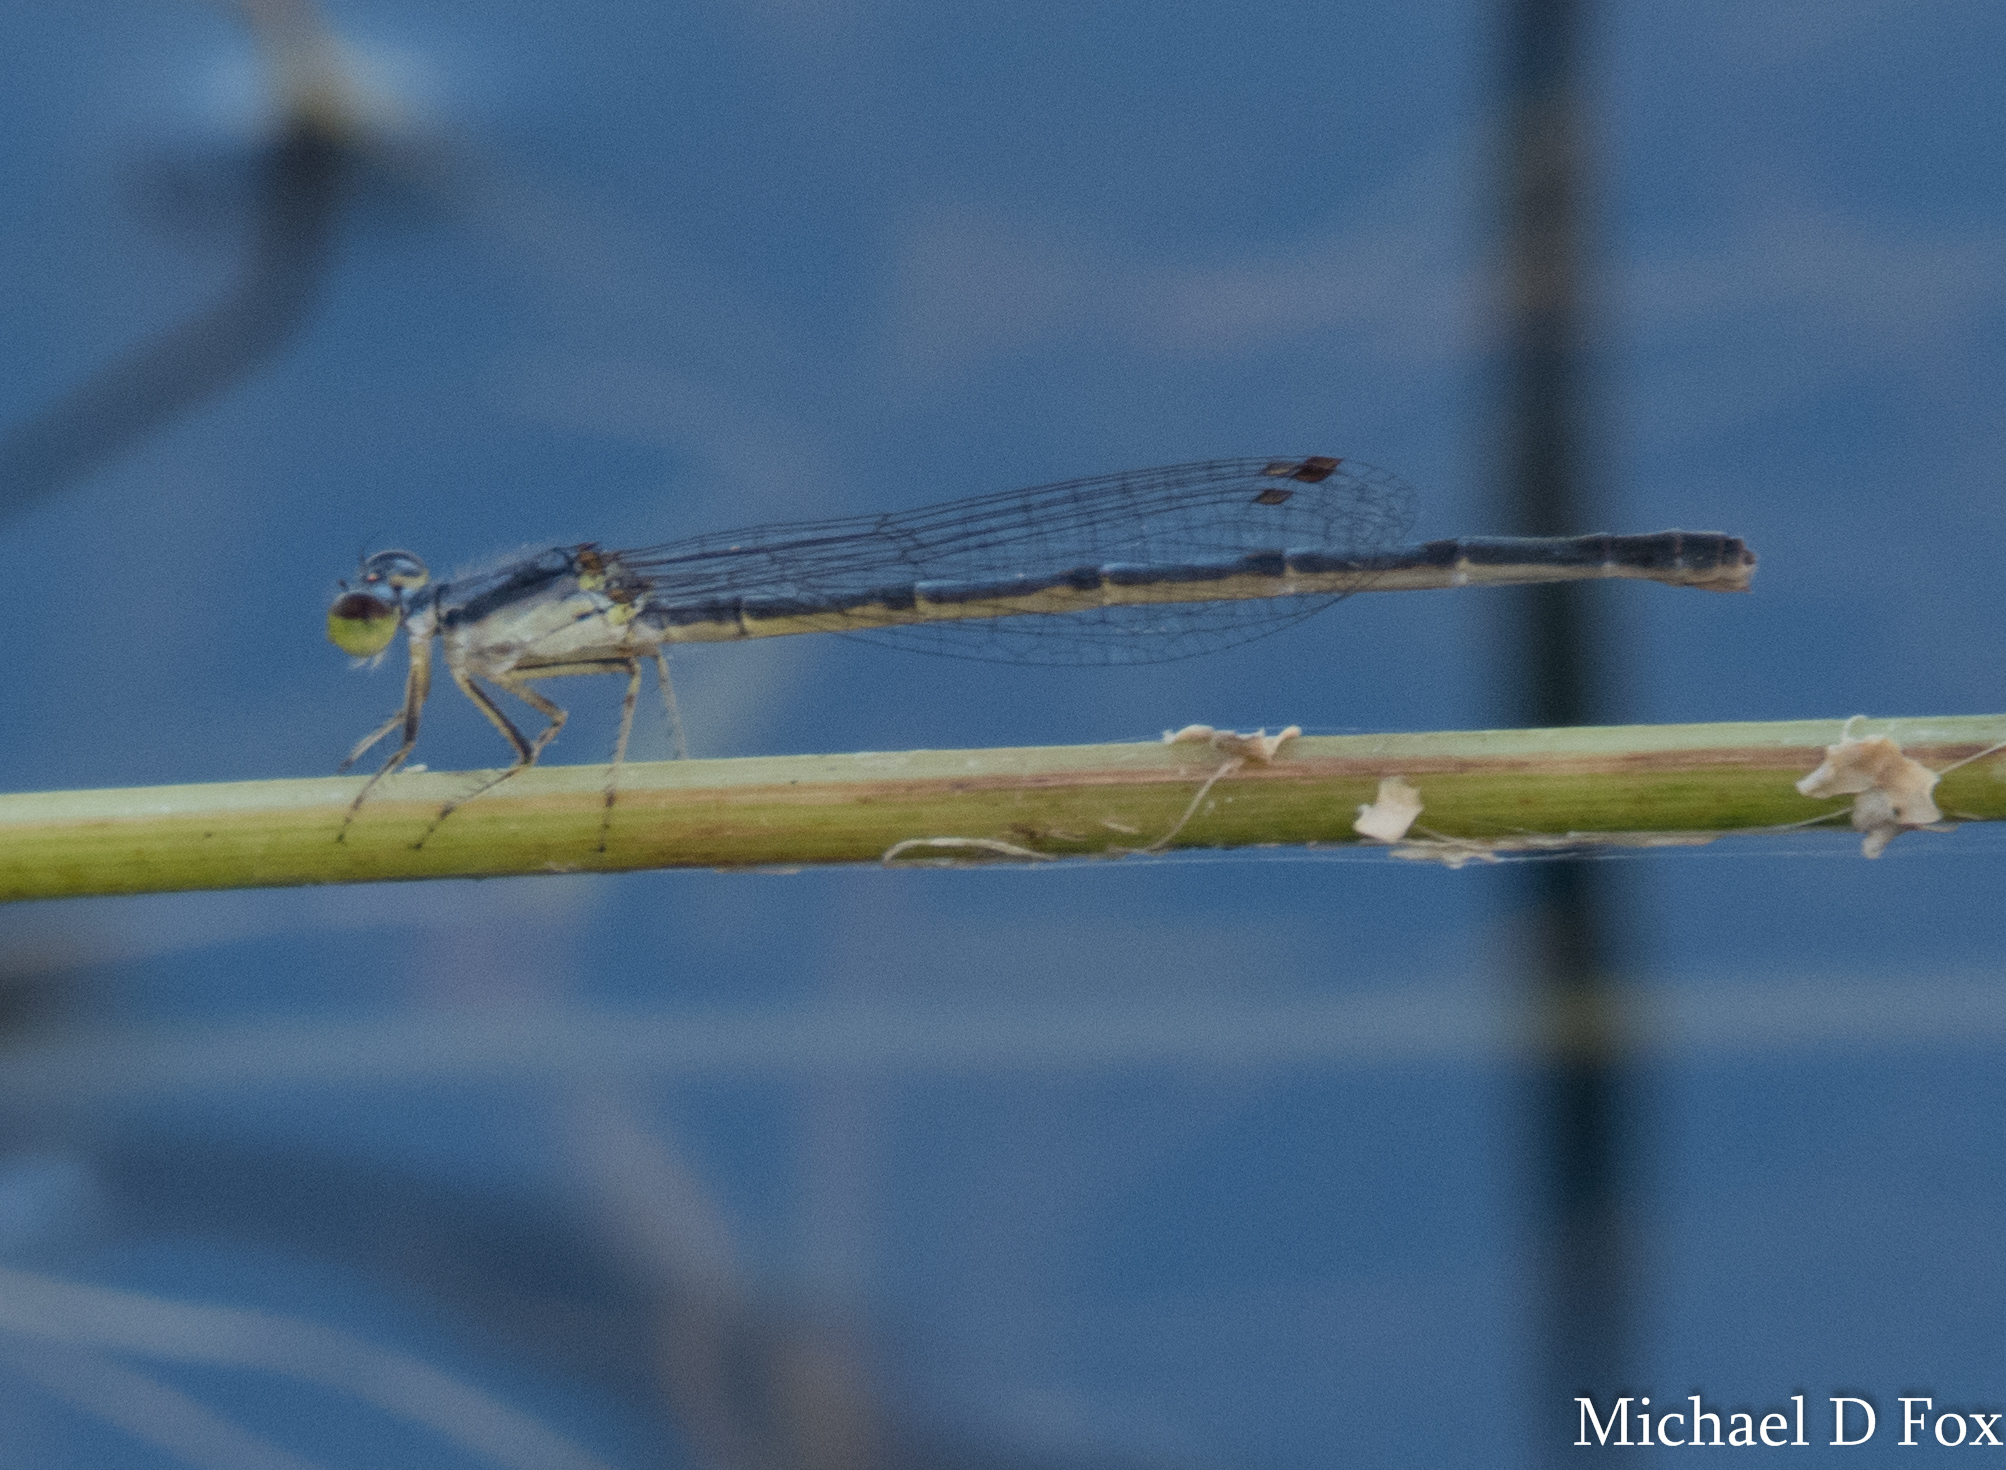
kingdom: Animalia
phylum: Arthropoda
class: Insecta
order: Odonata
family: Coenagrionidae
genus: Ischnura
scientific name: Ischnura posita
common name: Fragile forktail
